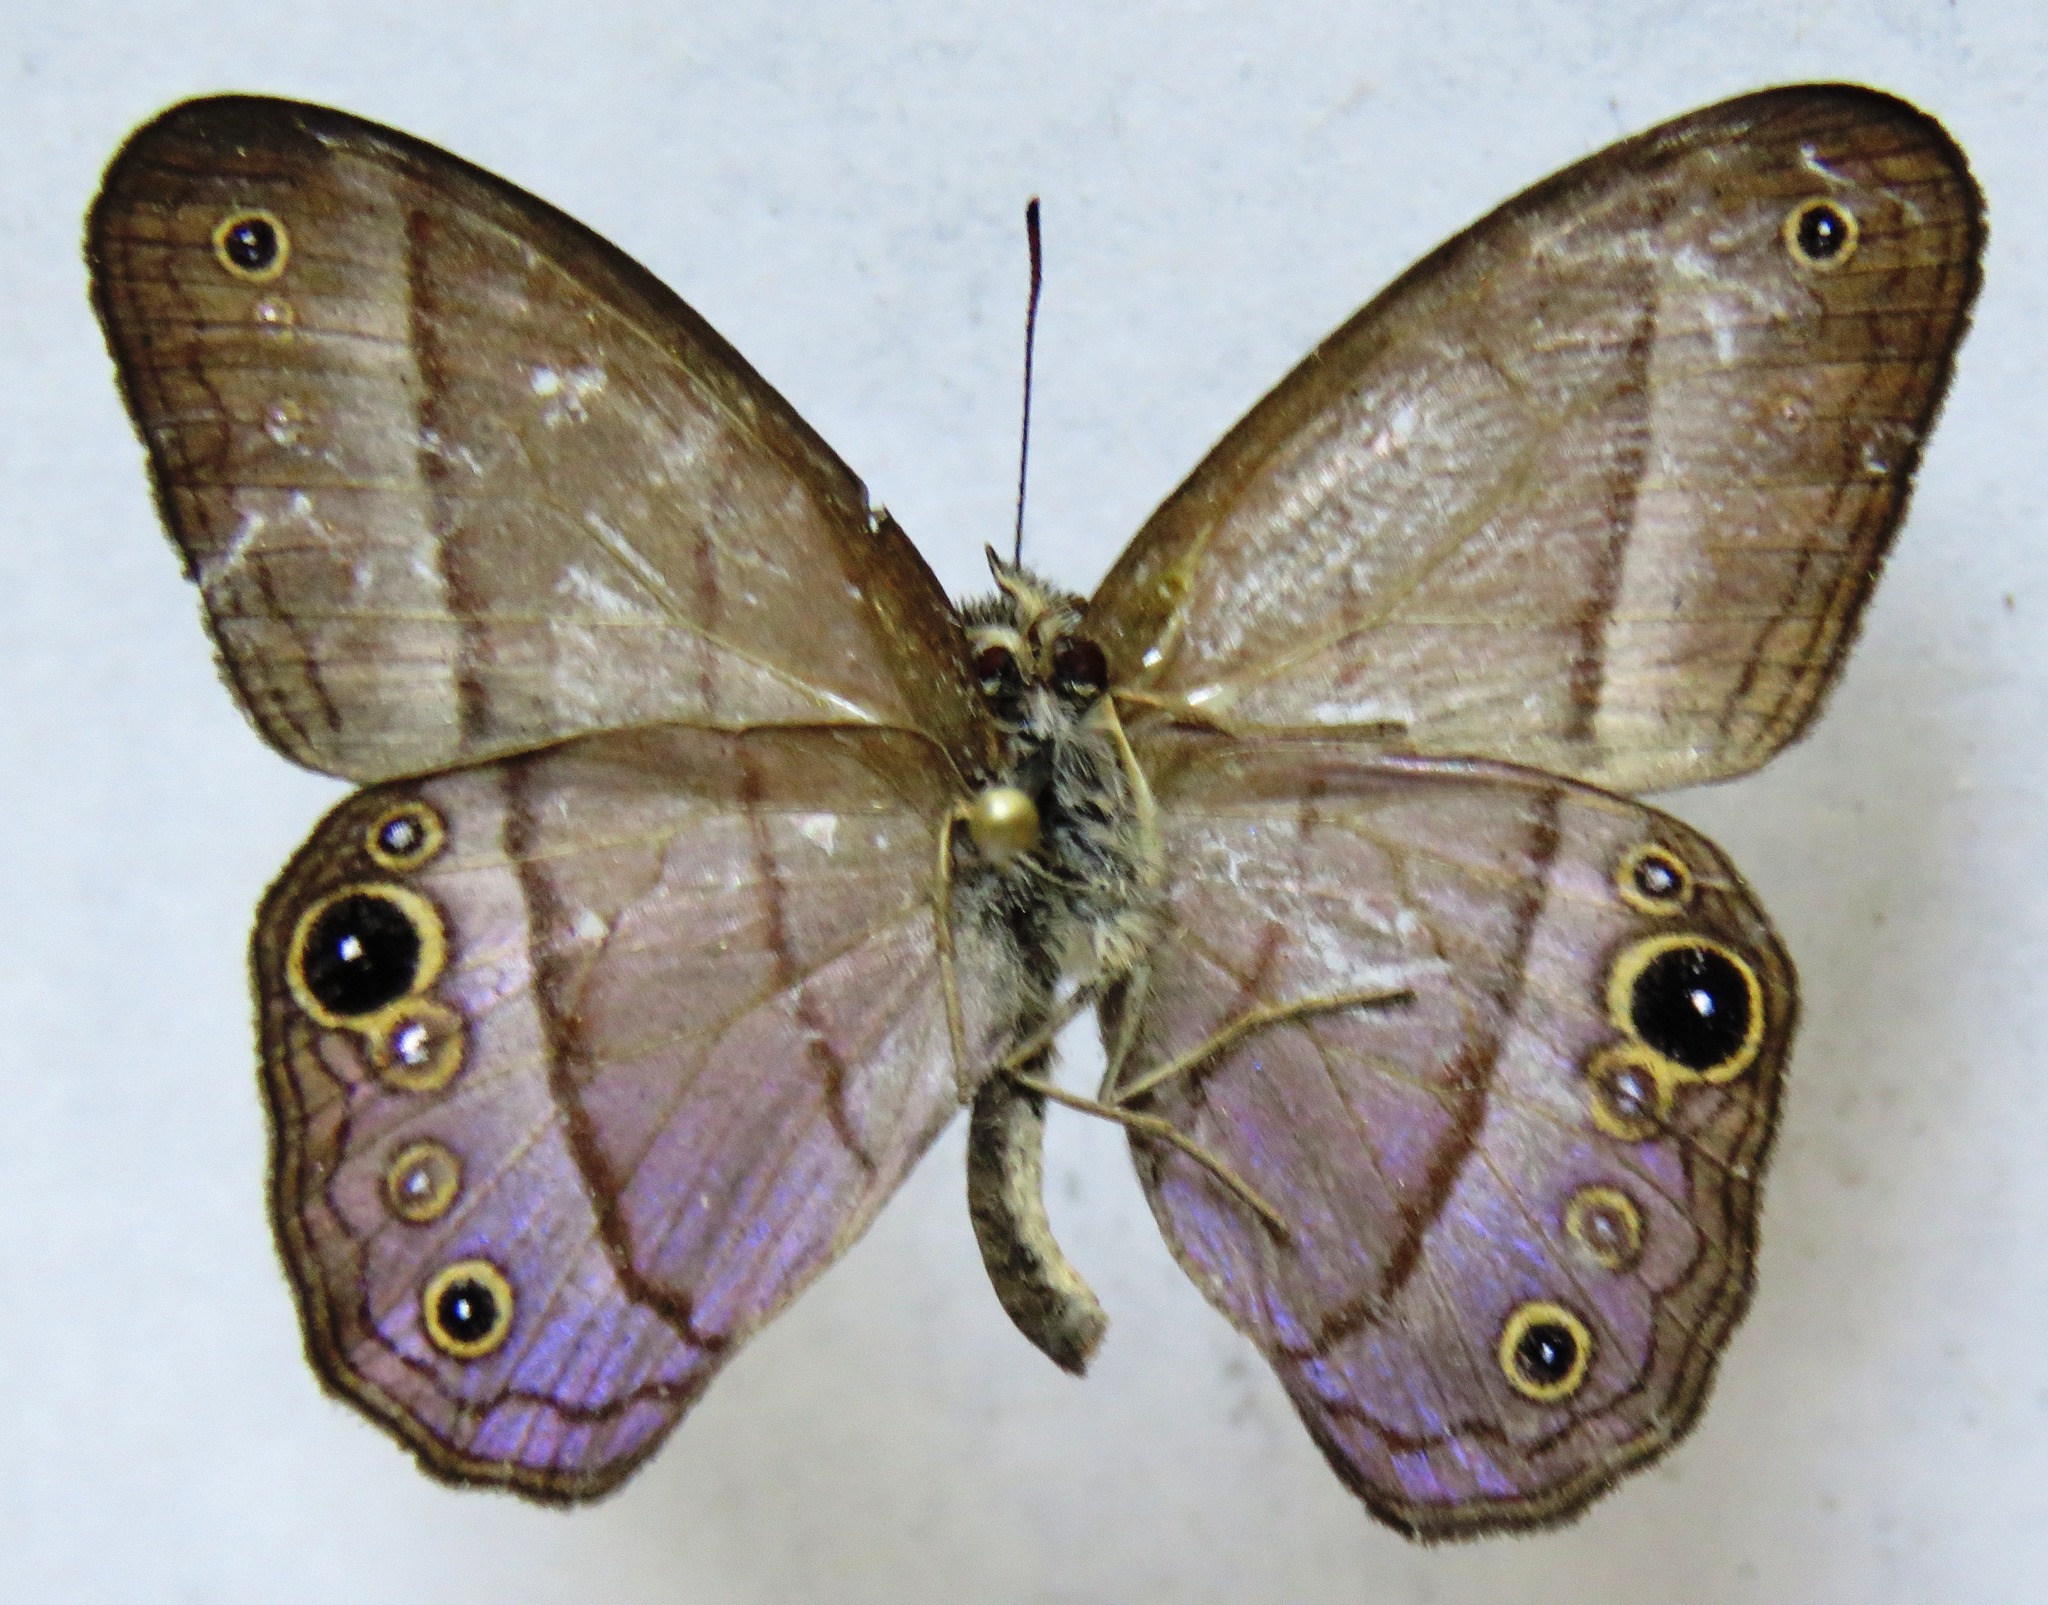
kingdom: Animalia
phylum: Arthropoda
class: Insecta
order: Lepidoptera
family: Nymphalidae
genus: Amiga
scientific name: Amiga arnaca
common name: Blue-topped satyr
